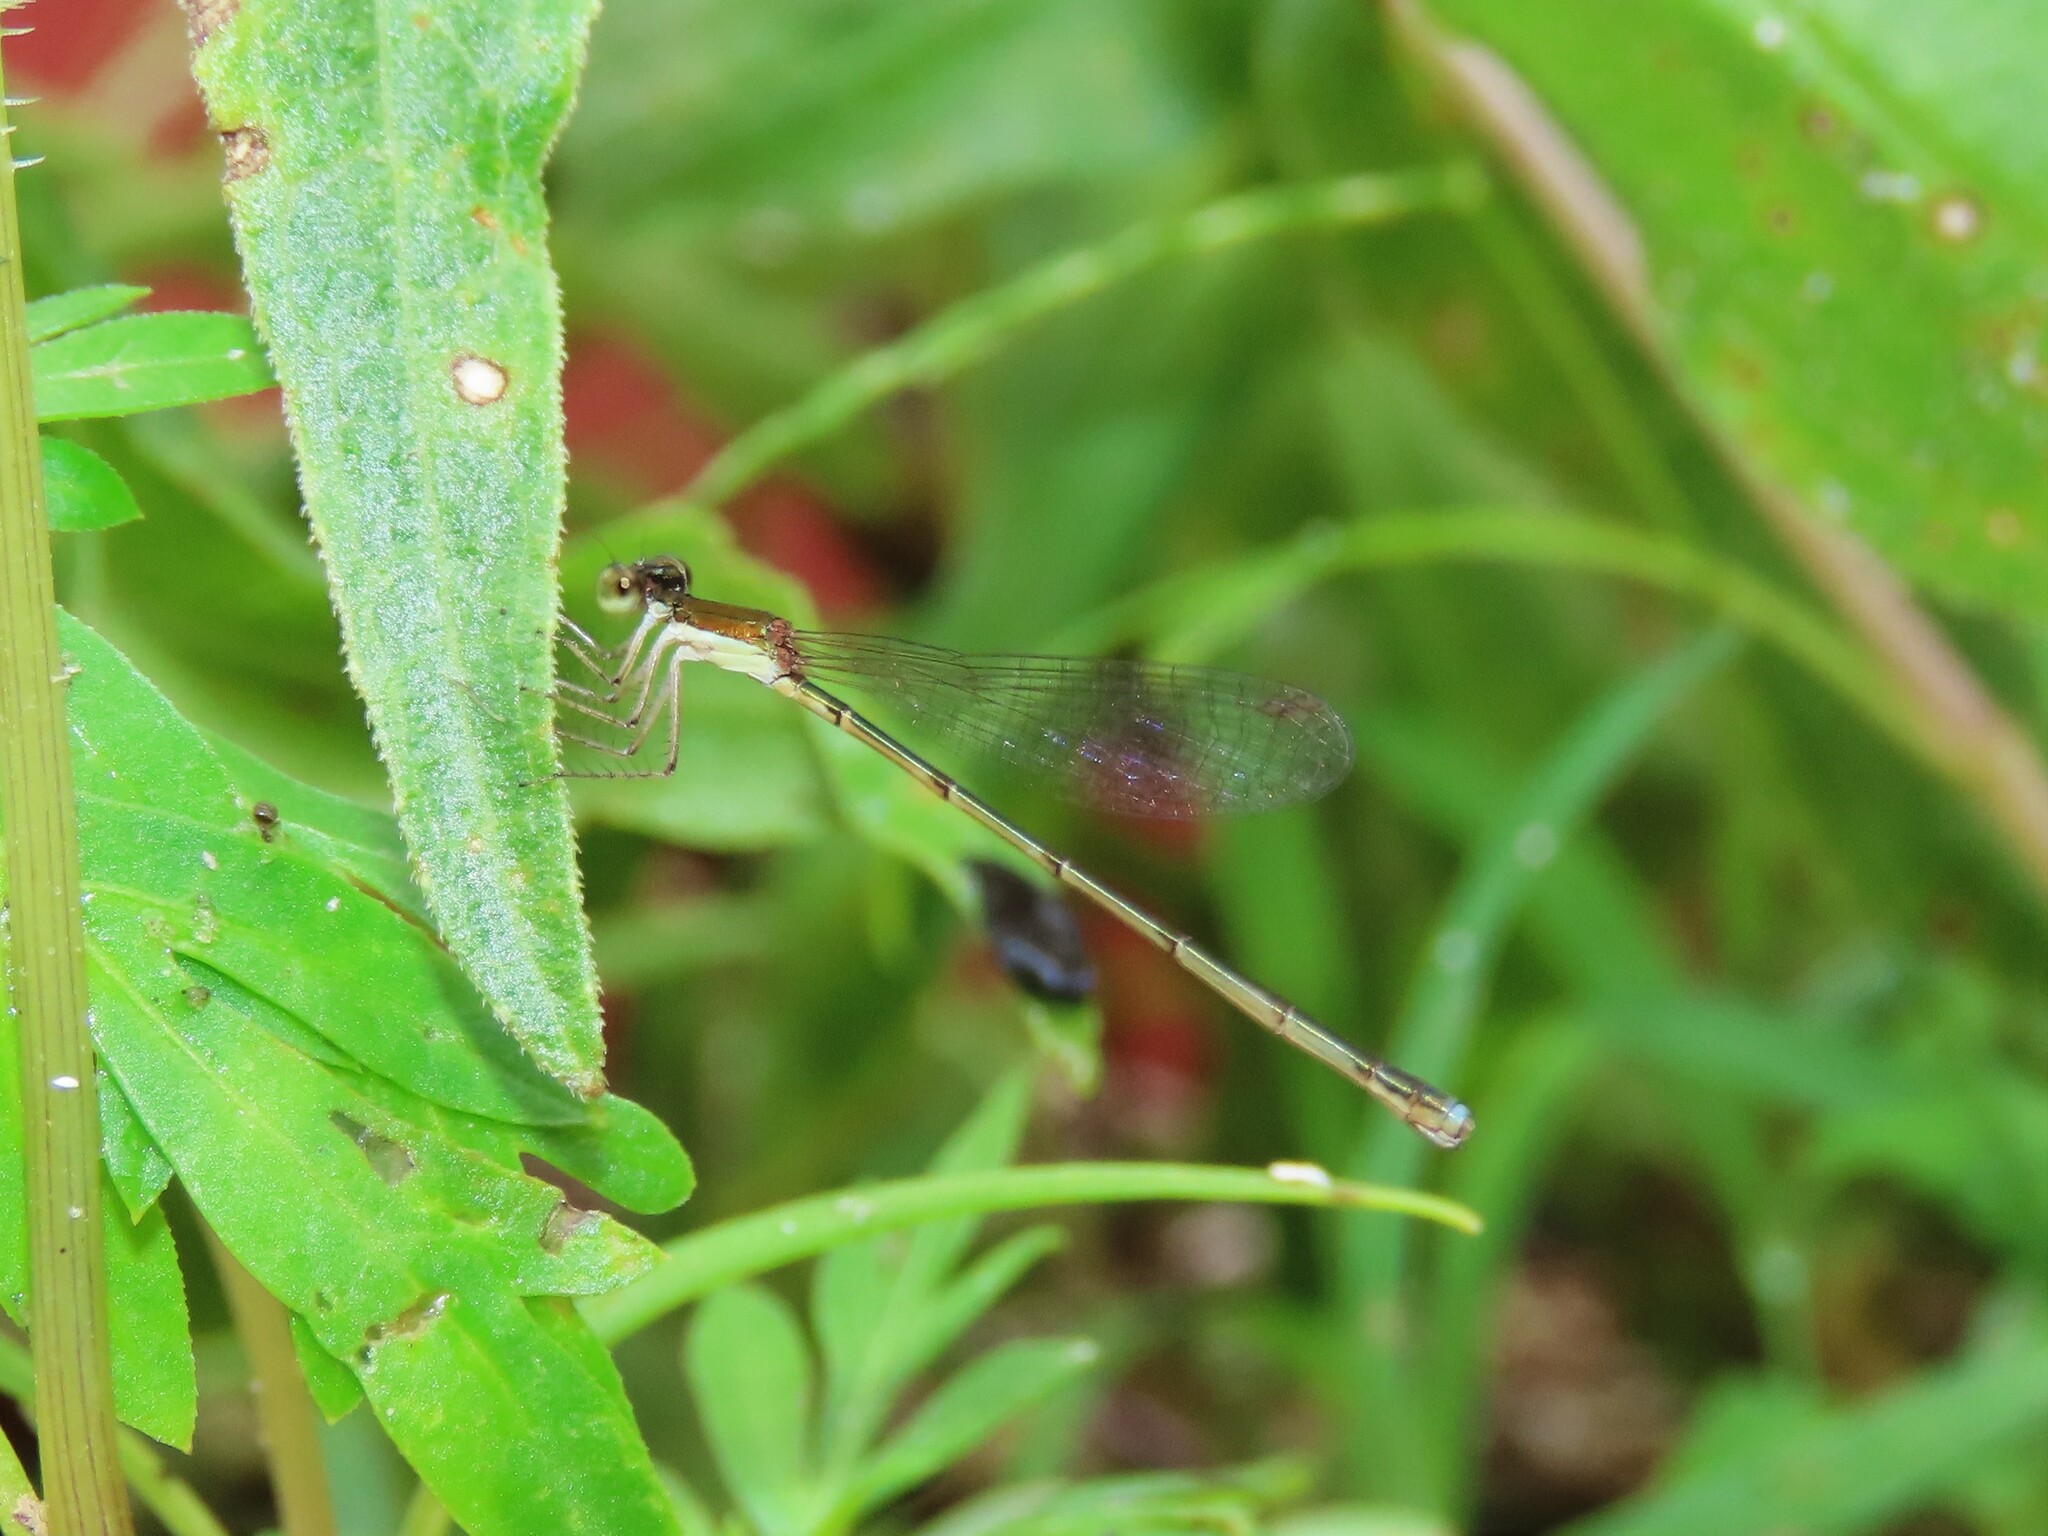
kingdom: Animalia
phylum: Arthropoda
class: Insecta
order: Odonata
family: Coenagrionidae
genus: Nehalennia
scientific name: Nehalennia integricollis
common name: Southern sprite
